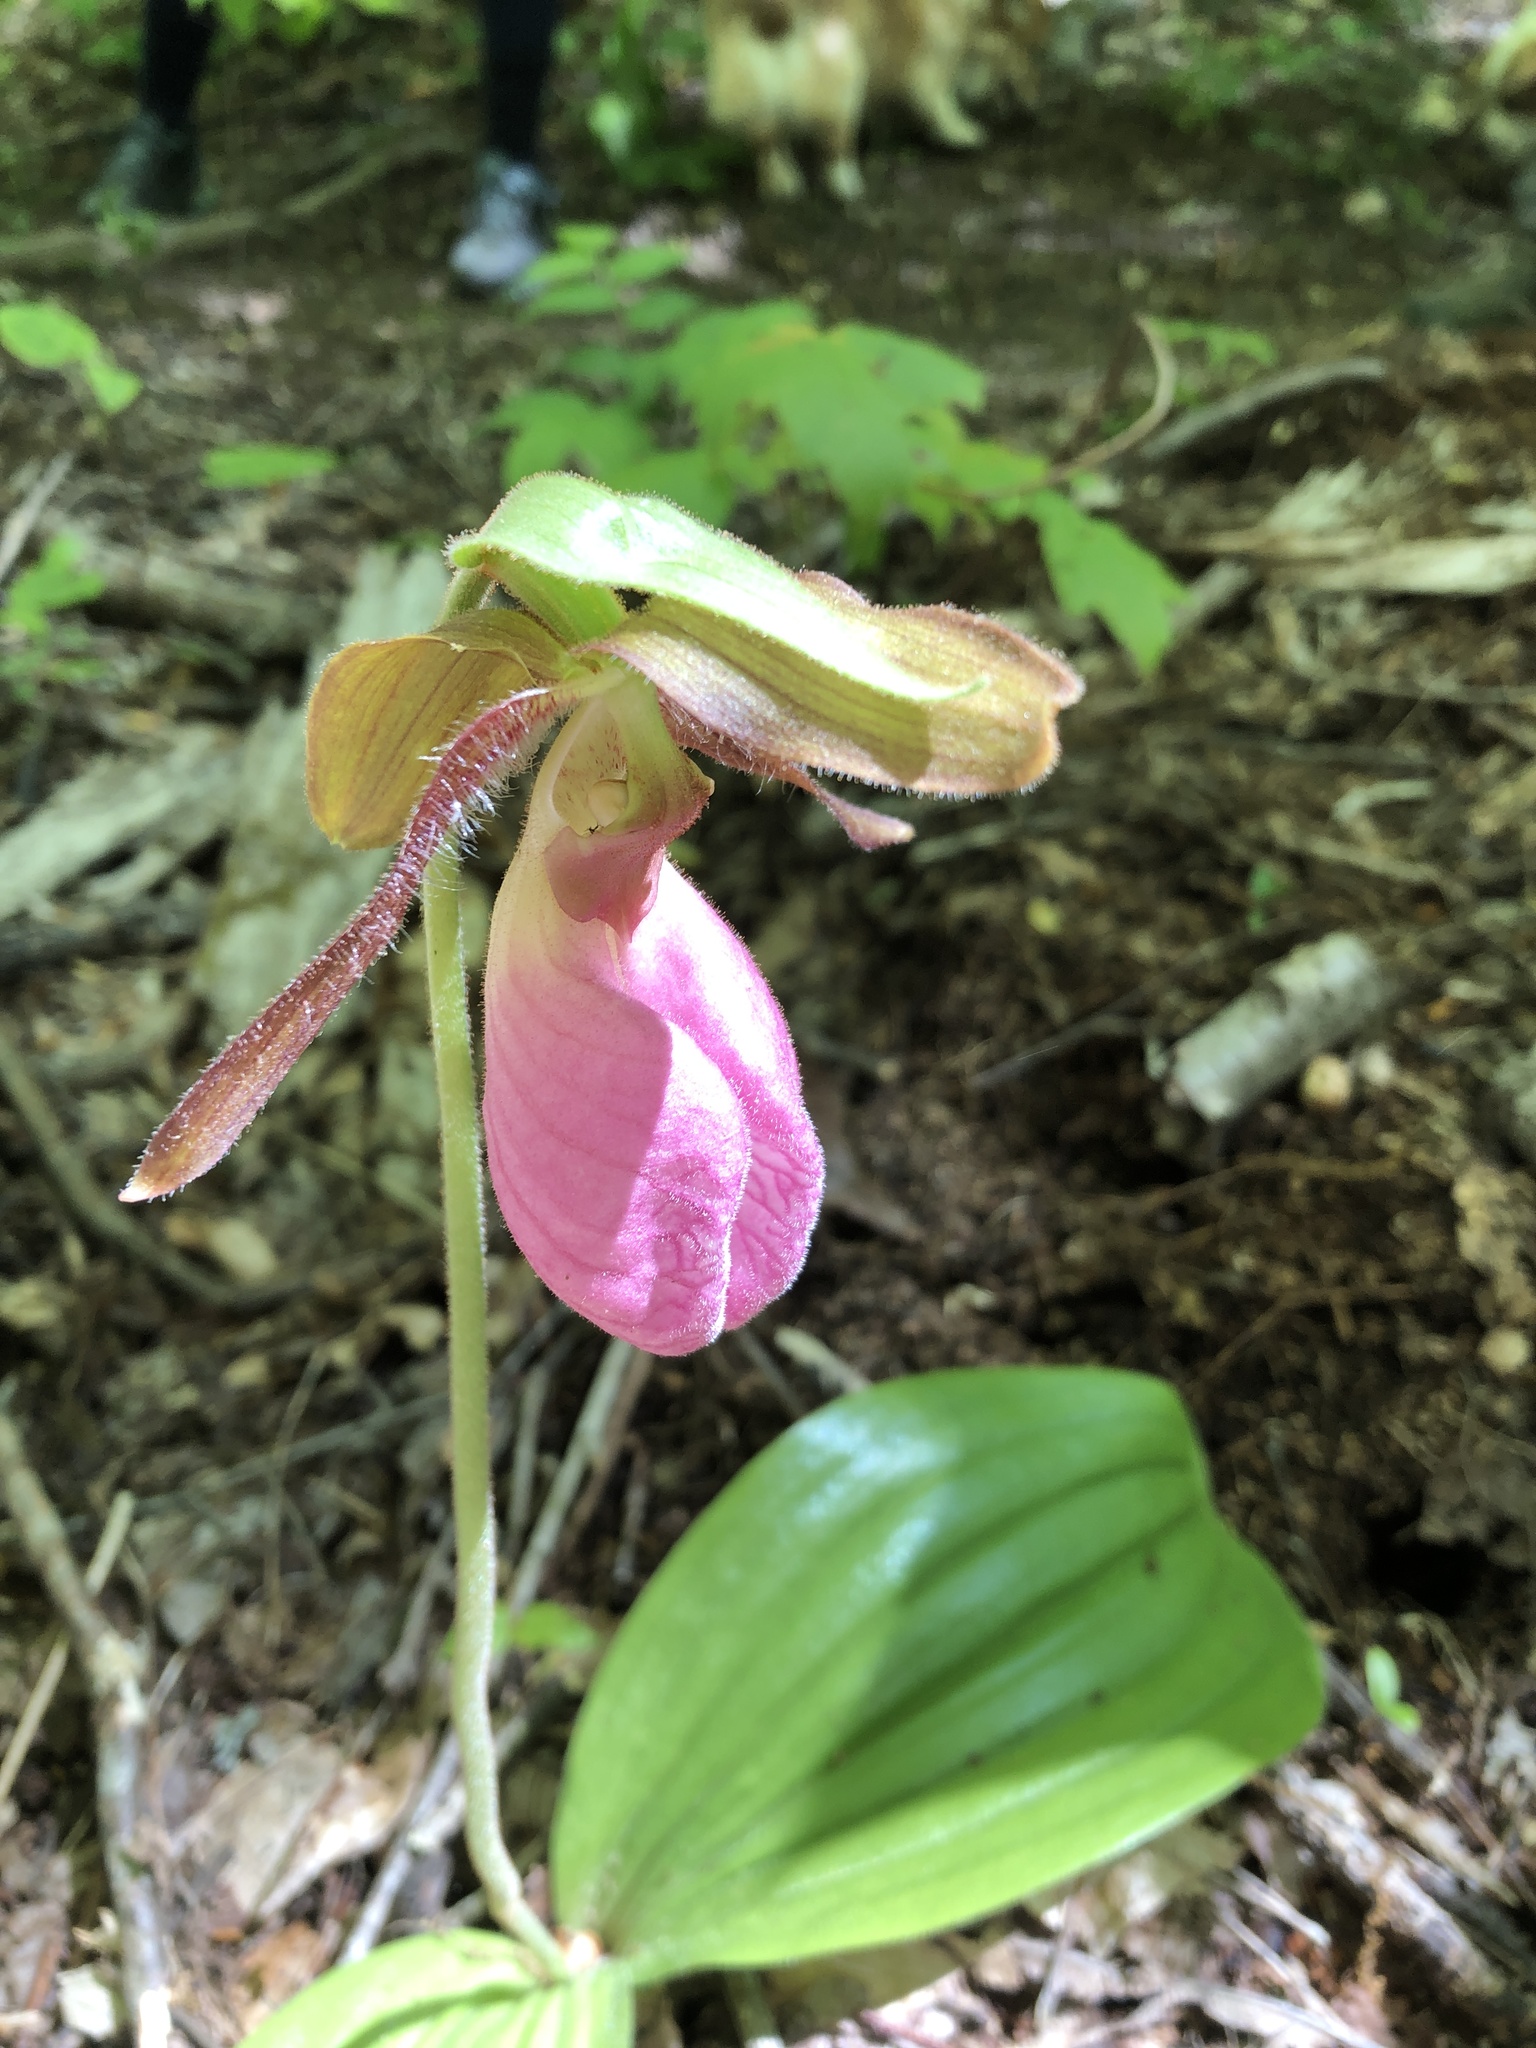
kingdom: Plantae
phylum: Tracheophyta
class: Liliopsida
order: Asparagales
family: Orchidaceae
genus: Cypripedium
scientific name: Cypripedium acaule
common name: Pink lady's-slipper
